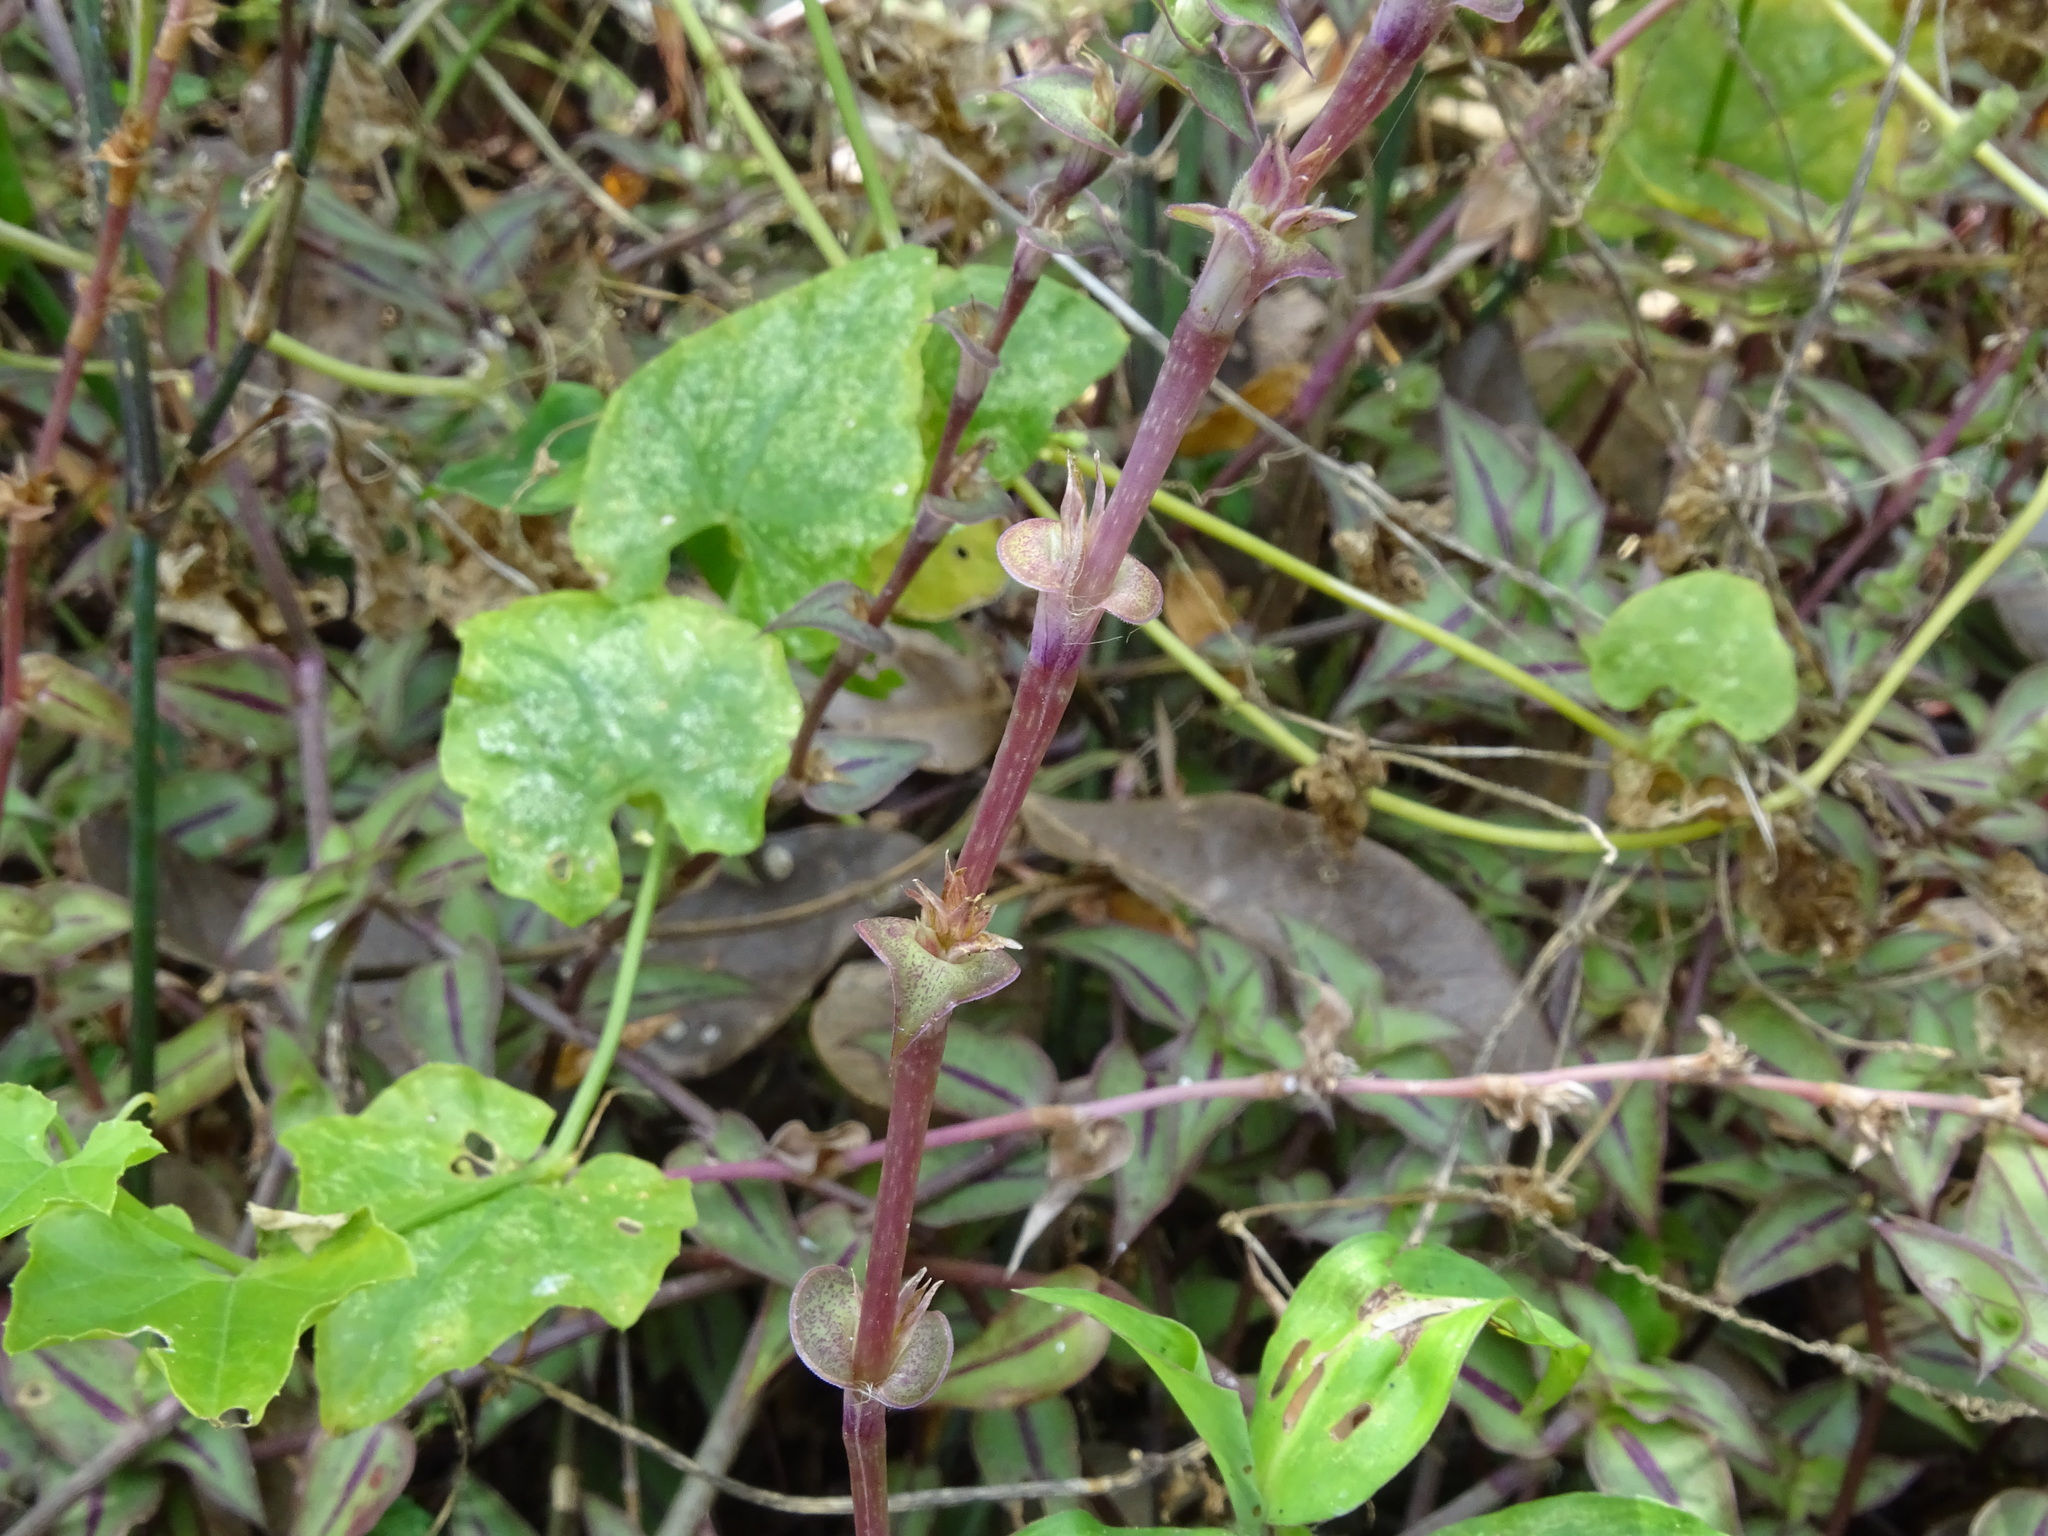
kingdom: Plantae
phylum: Tracheophyta
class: Liliopsida
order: Commelinales
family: Commelinaceae
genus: Callisia
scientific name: Callisia repens
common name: Creeping inchplant
